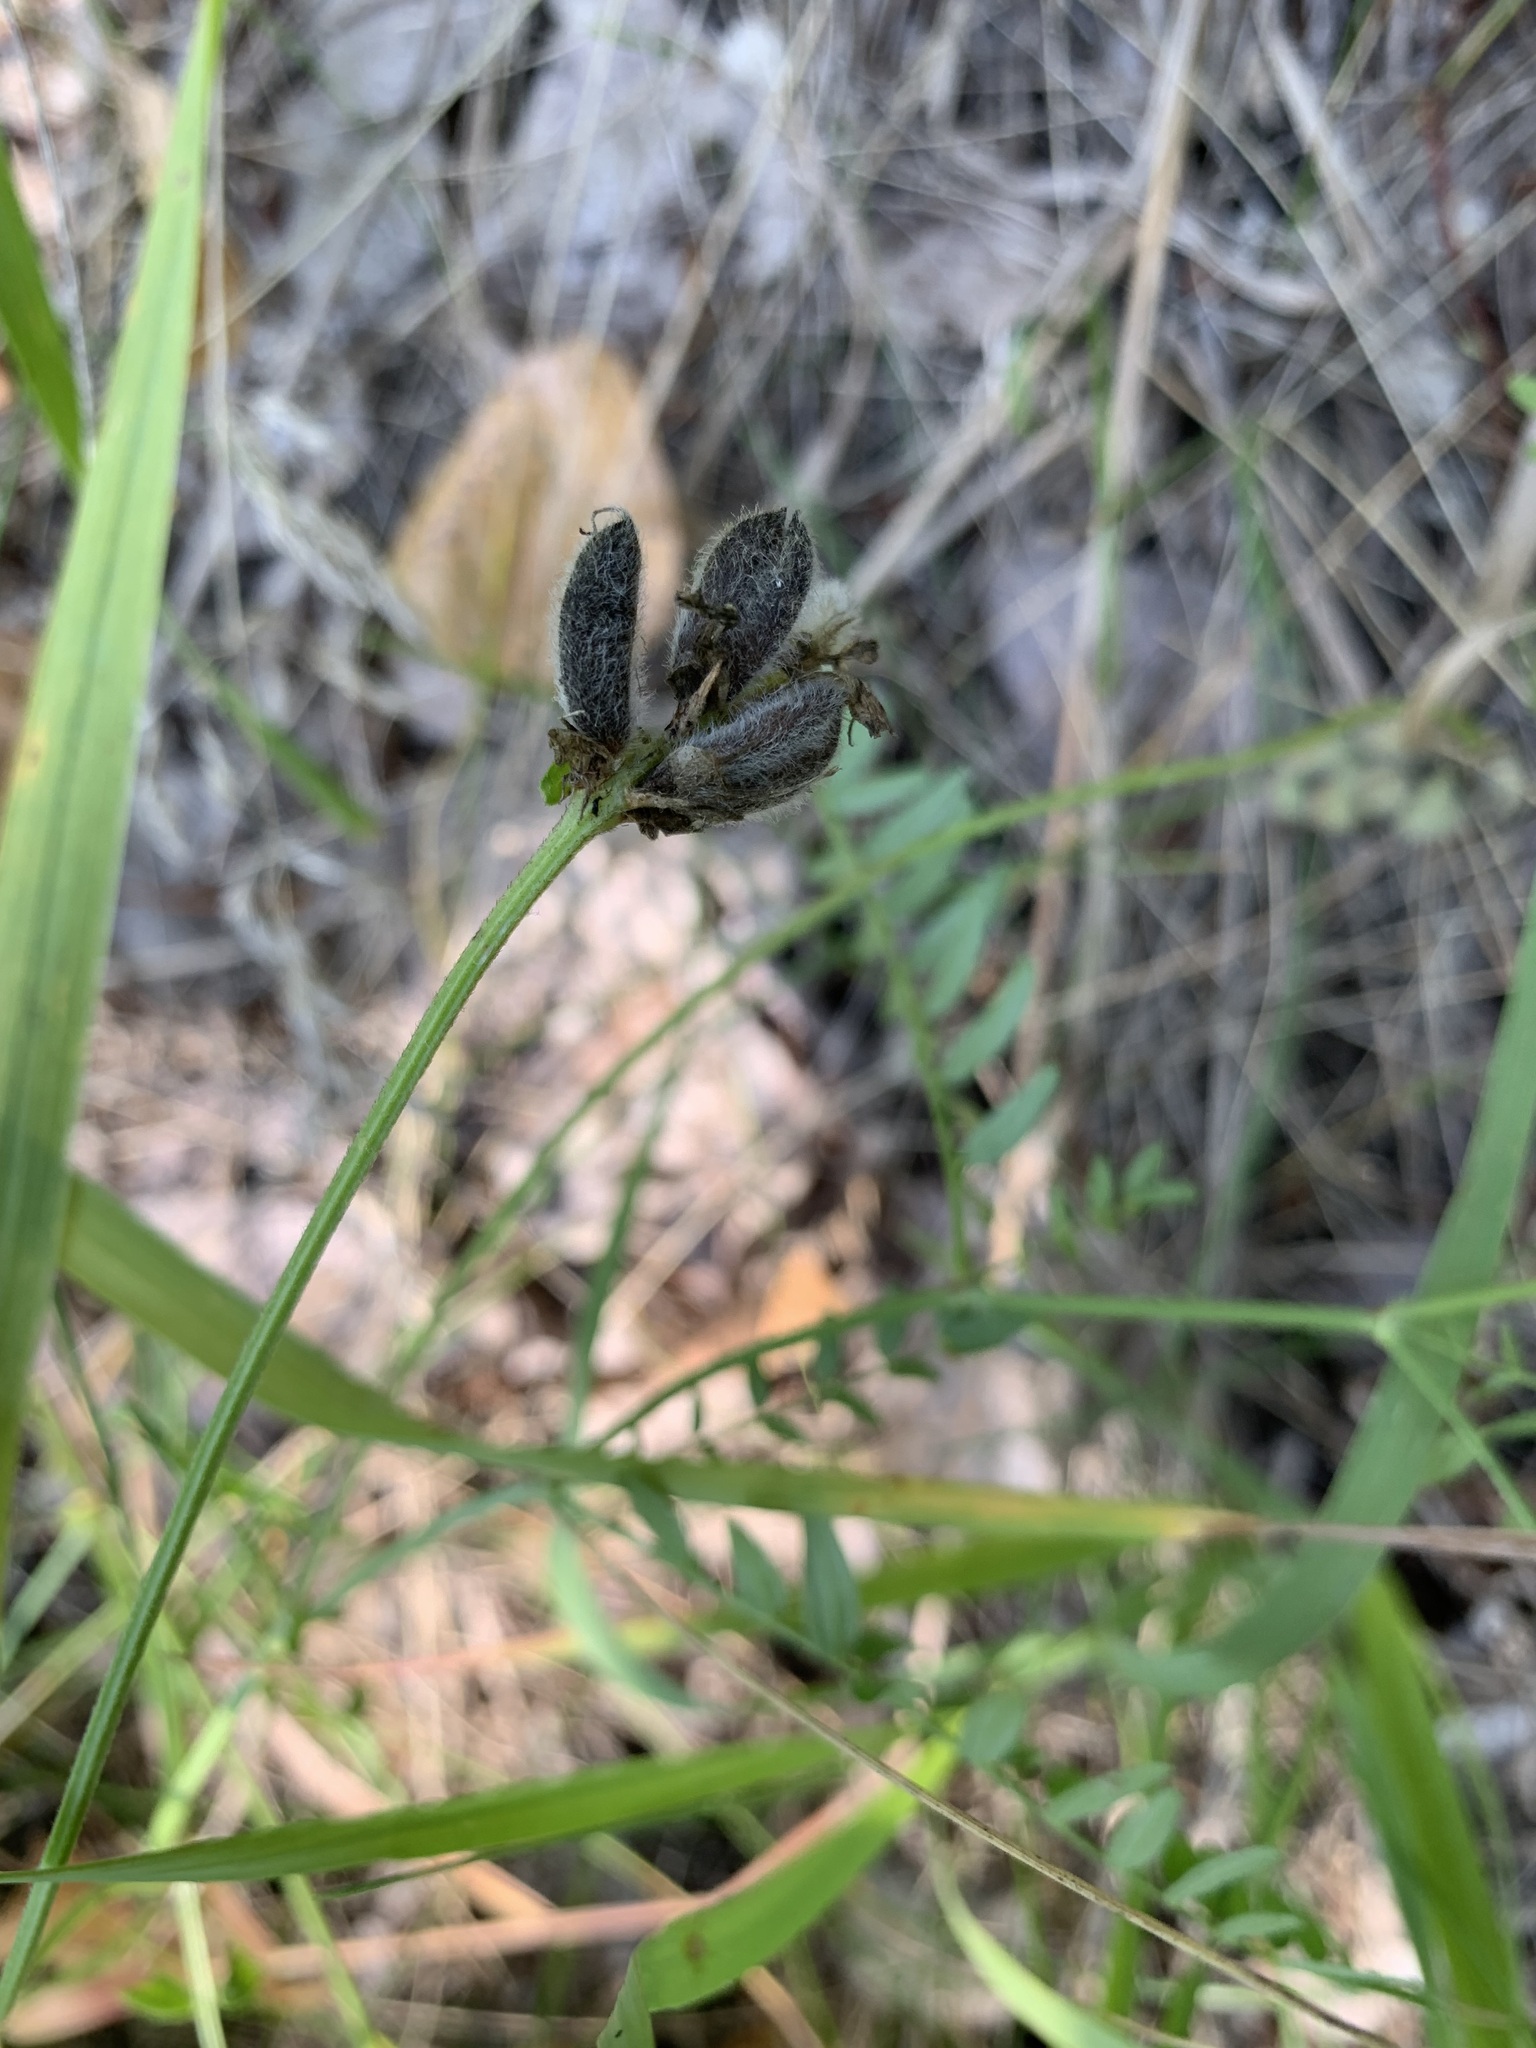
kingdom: Plantae
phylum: Tracheophyta
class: Magnoliopsida
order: Fabales
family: Fabaceae
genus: Astragalus
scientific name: Astragalus danicus
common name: Purple milk-vetch
